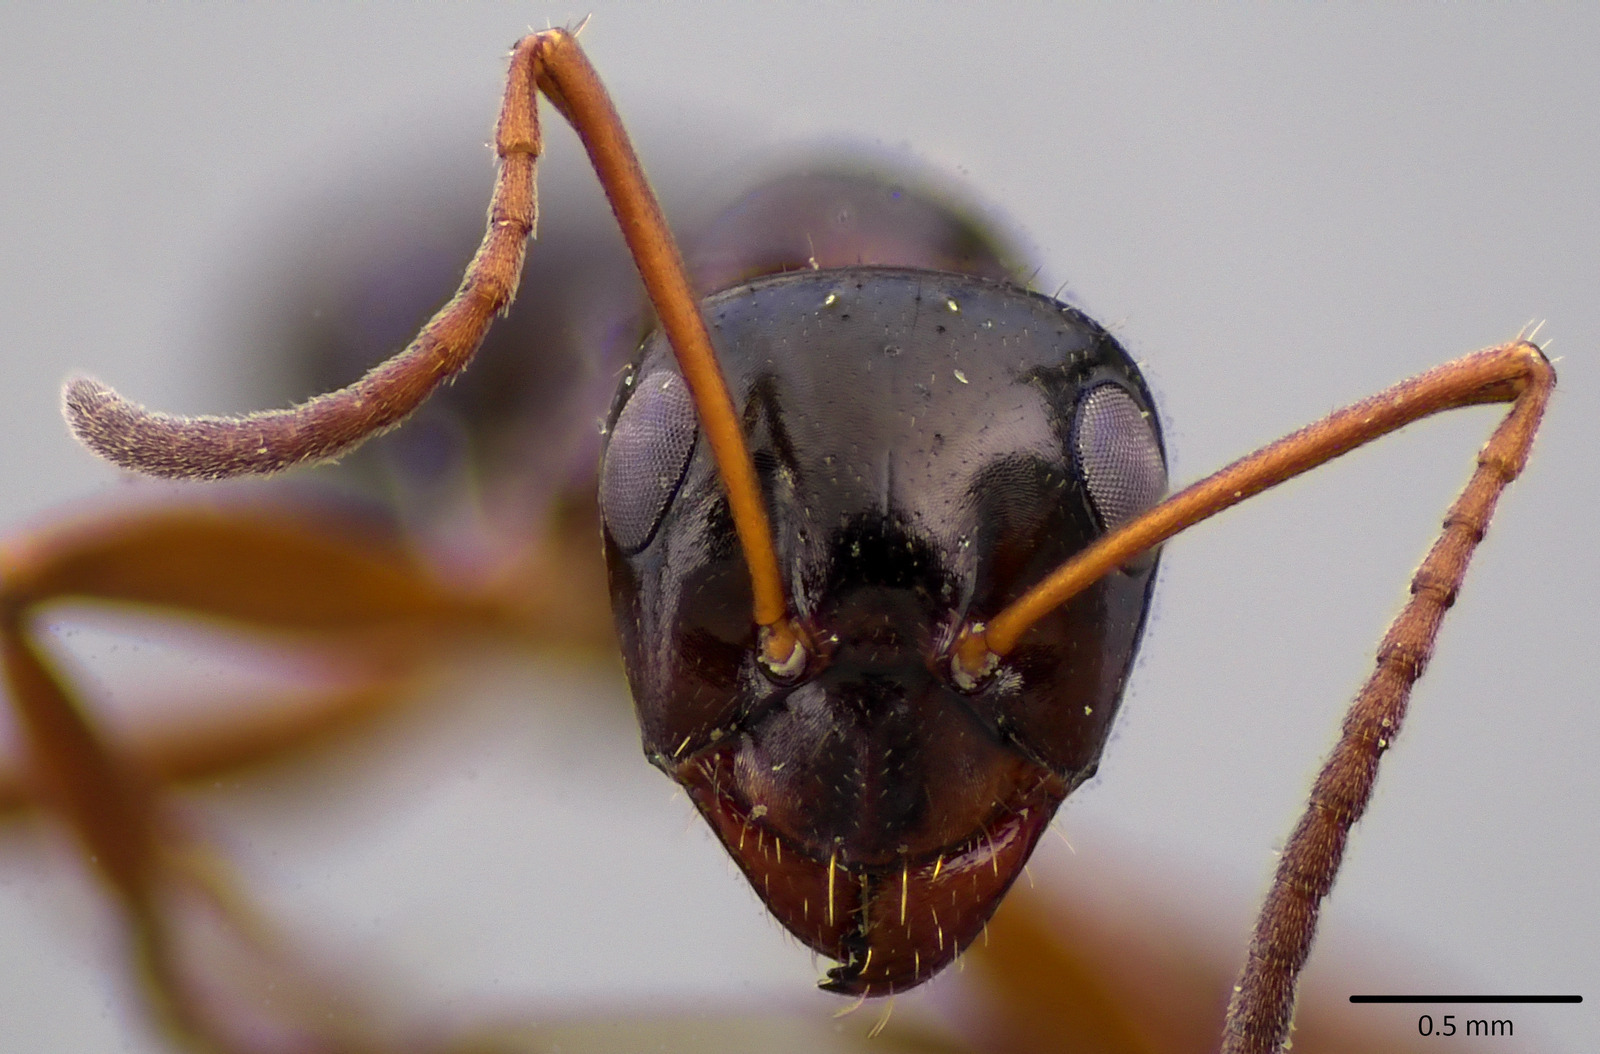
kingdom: Animalia
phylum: Arthropoda
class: Insecta
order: Hymenoptera
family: Formicidae
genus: Formica
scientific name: Formica neogagates
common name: New world black ant
